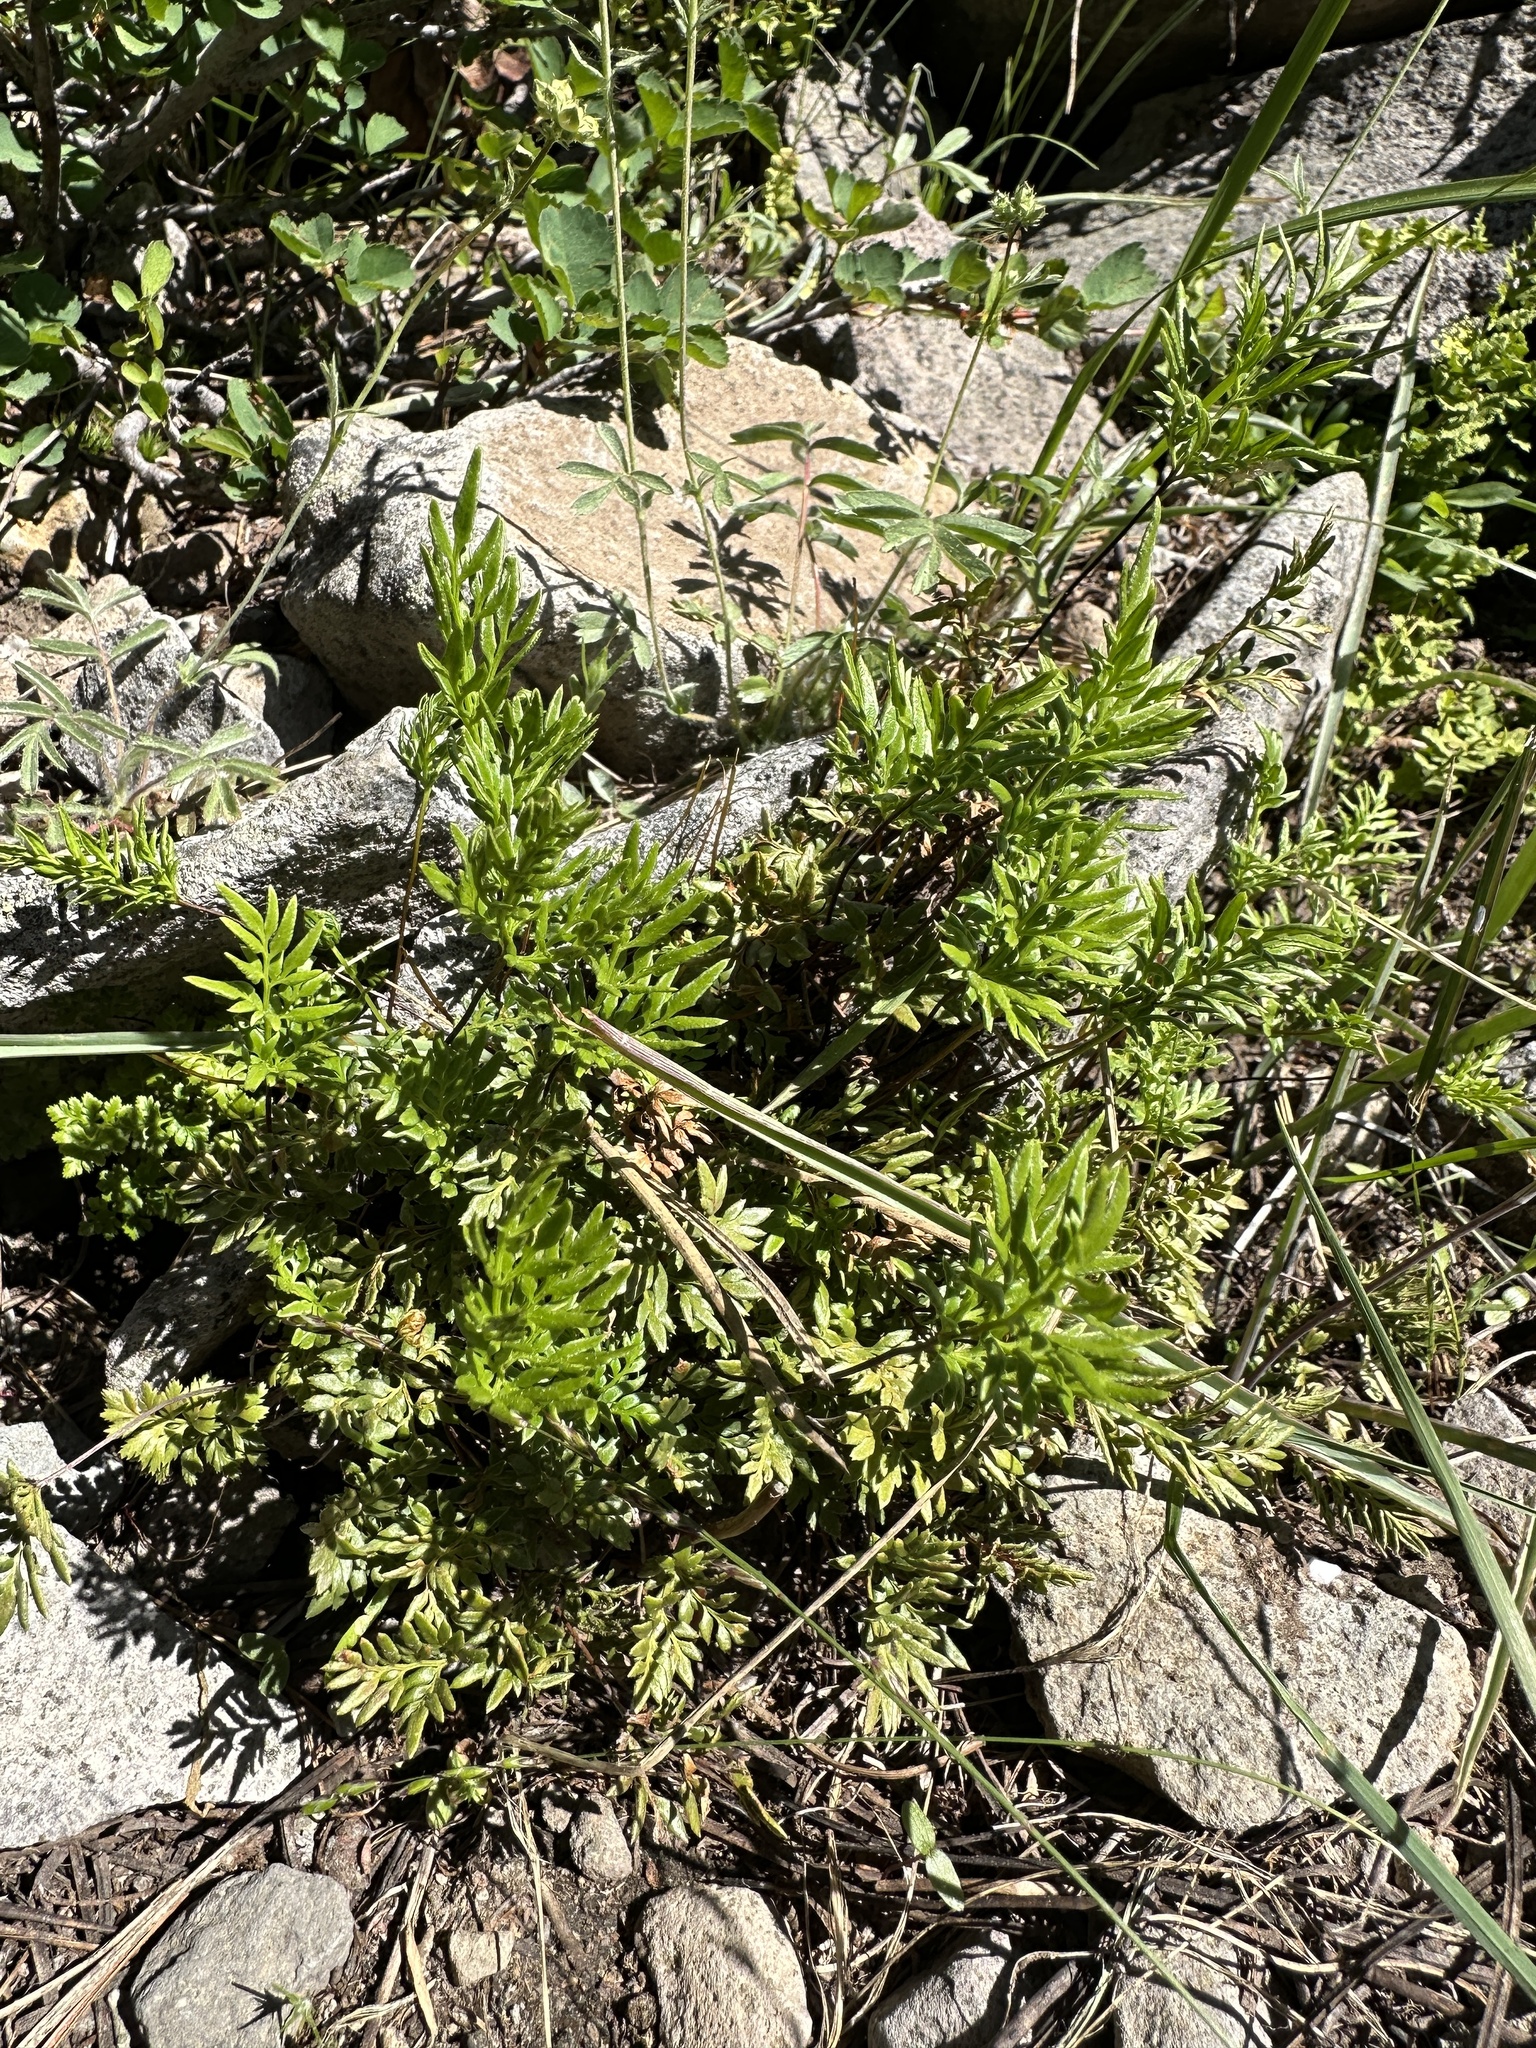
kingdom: Plantae
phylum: Tracheophyta
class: Polypodiopsida
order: Polypodiales
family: Pteridaceae
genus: Aspidotis
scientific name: Aspidotis densa
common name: Indian's dream
